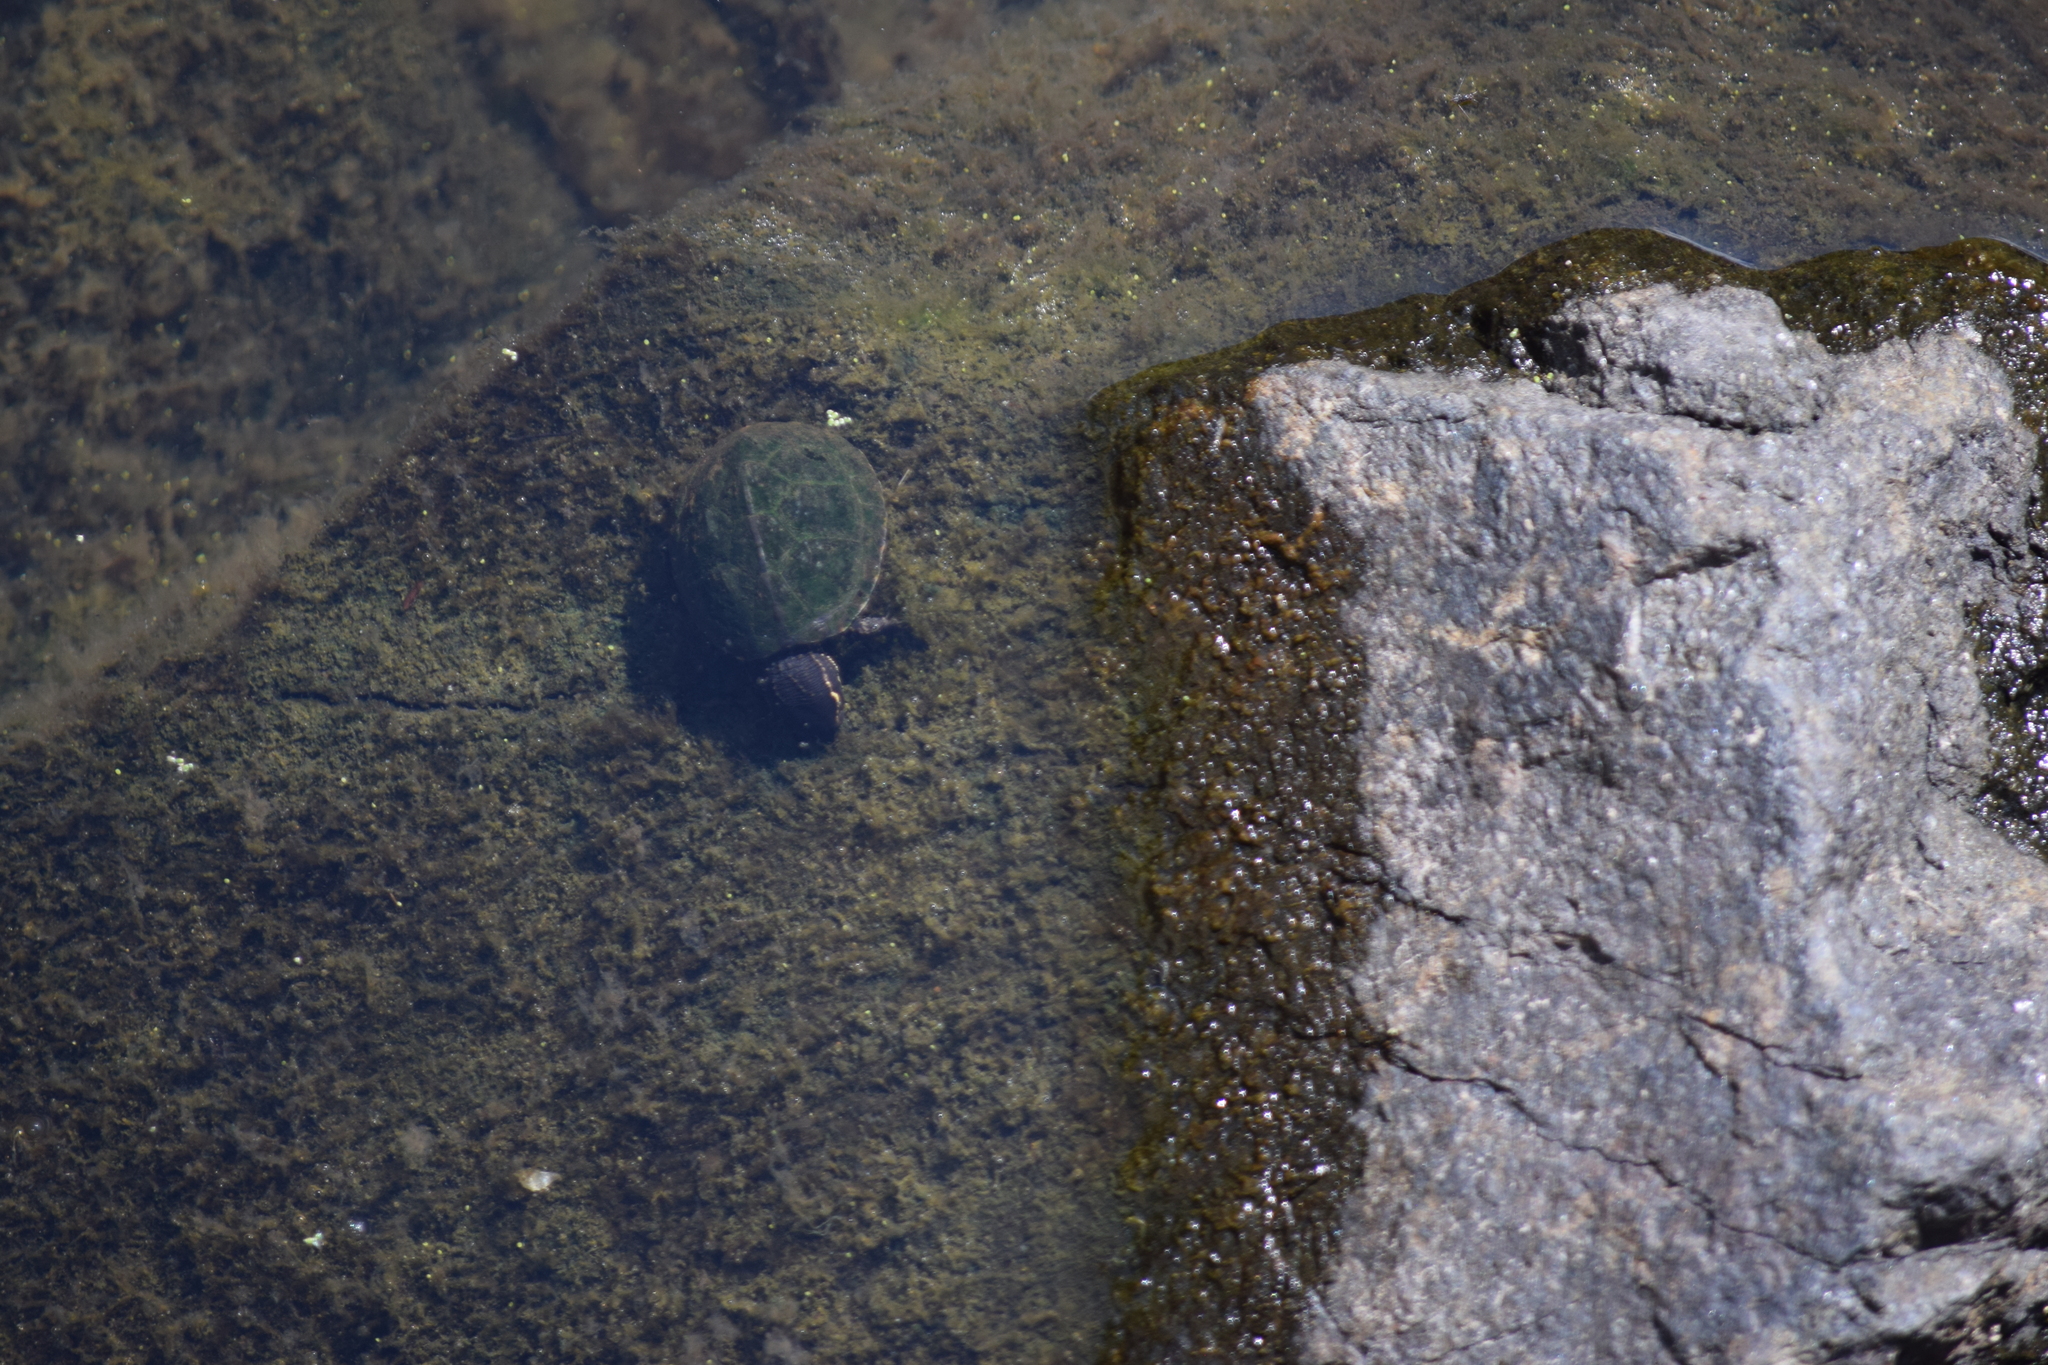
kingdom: Animalia
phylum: Chordata
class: Testudines
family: Kinosternidae
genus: Sternotherus
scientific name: Sternotherus odoratus
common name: Common musk turtle
